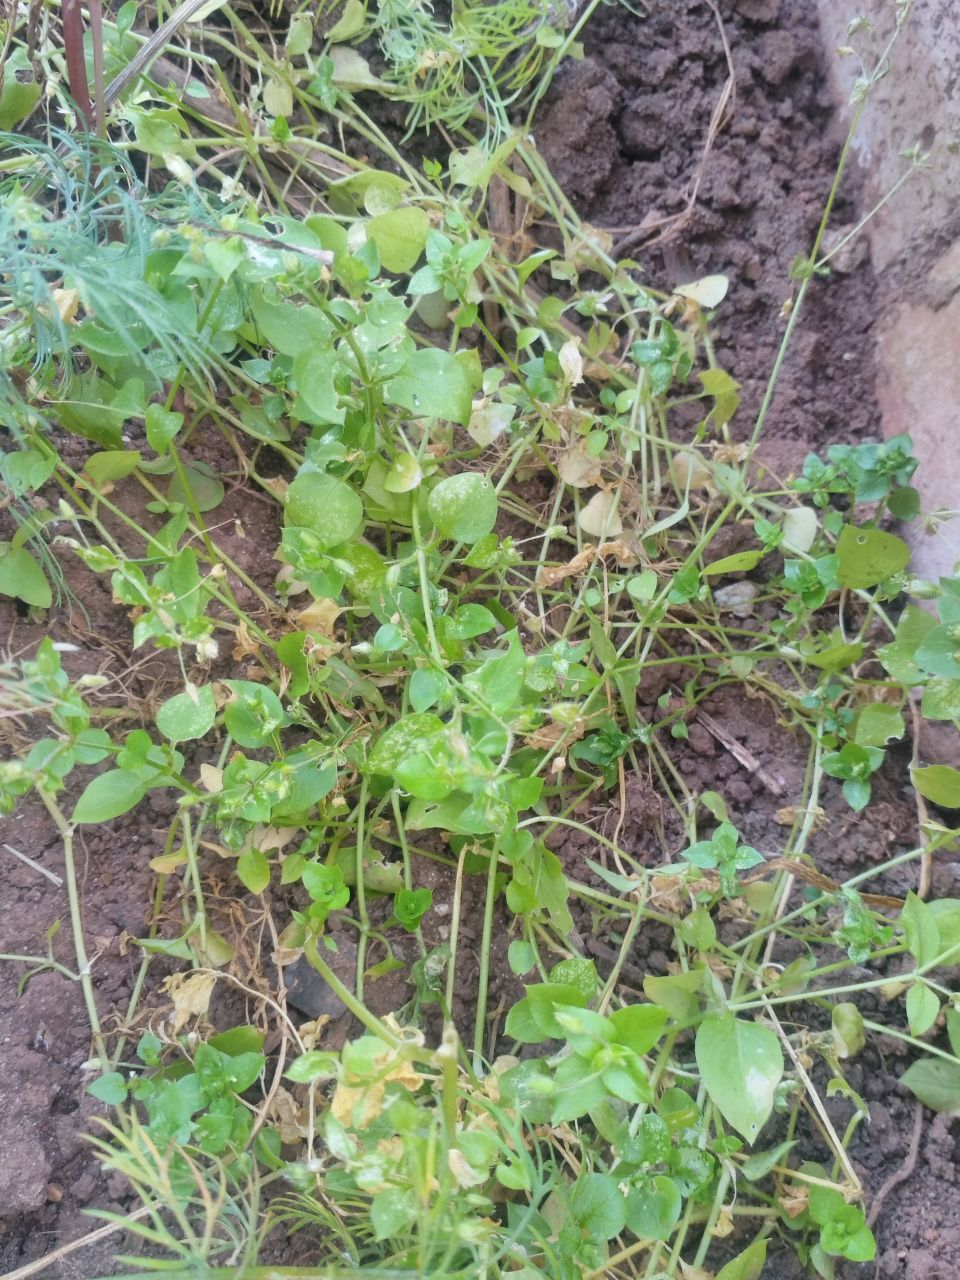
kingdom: Plantae
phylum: Tracheophyta
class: Magnoliopsida
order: Caryophyllales
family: Caryophyllaceae
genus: Stellaria
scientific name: Stellaria media
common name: Common chickweed
